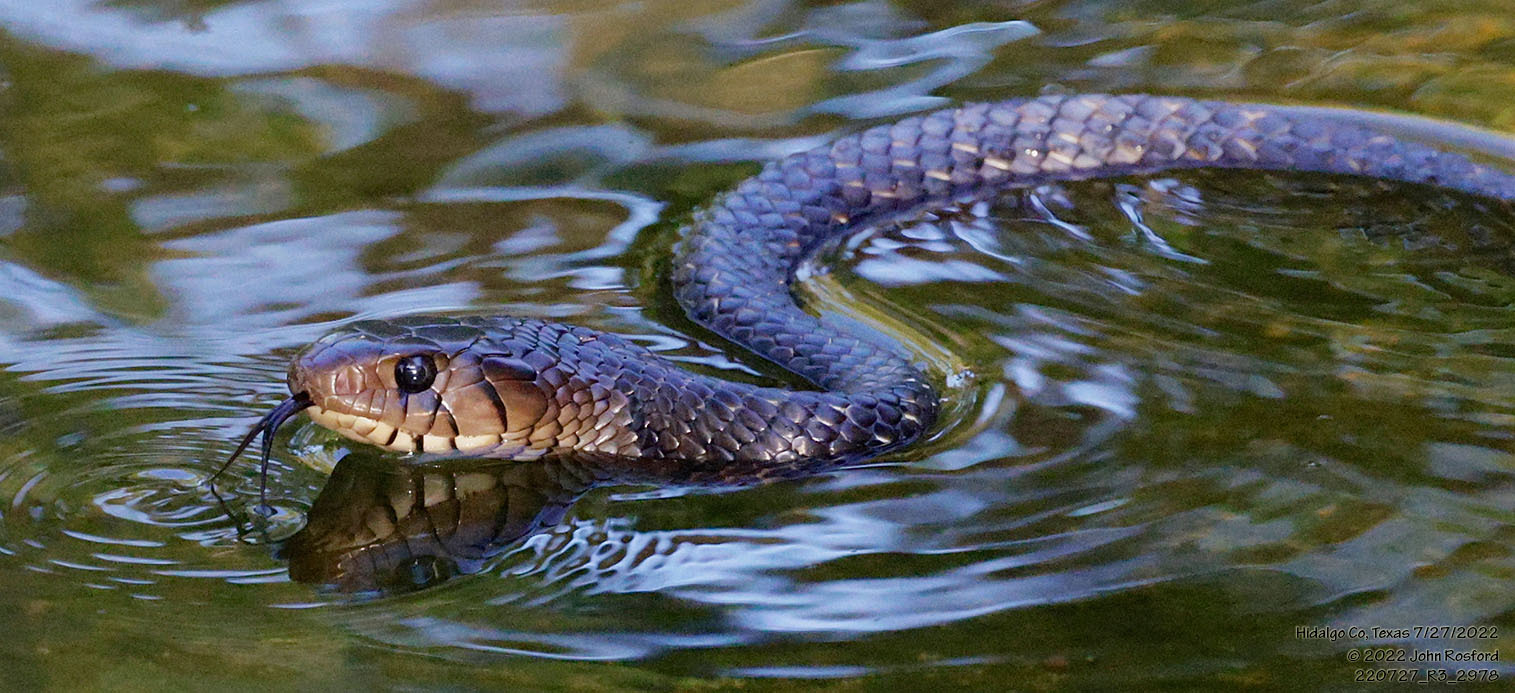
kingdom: Animalia
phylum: Chordata
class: Squamata
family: Colubridae
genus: Drymarchon
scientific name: Drymarchon melanurus
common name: Central american indigo snake
